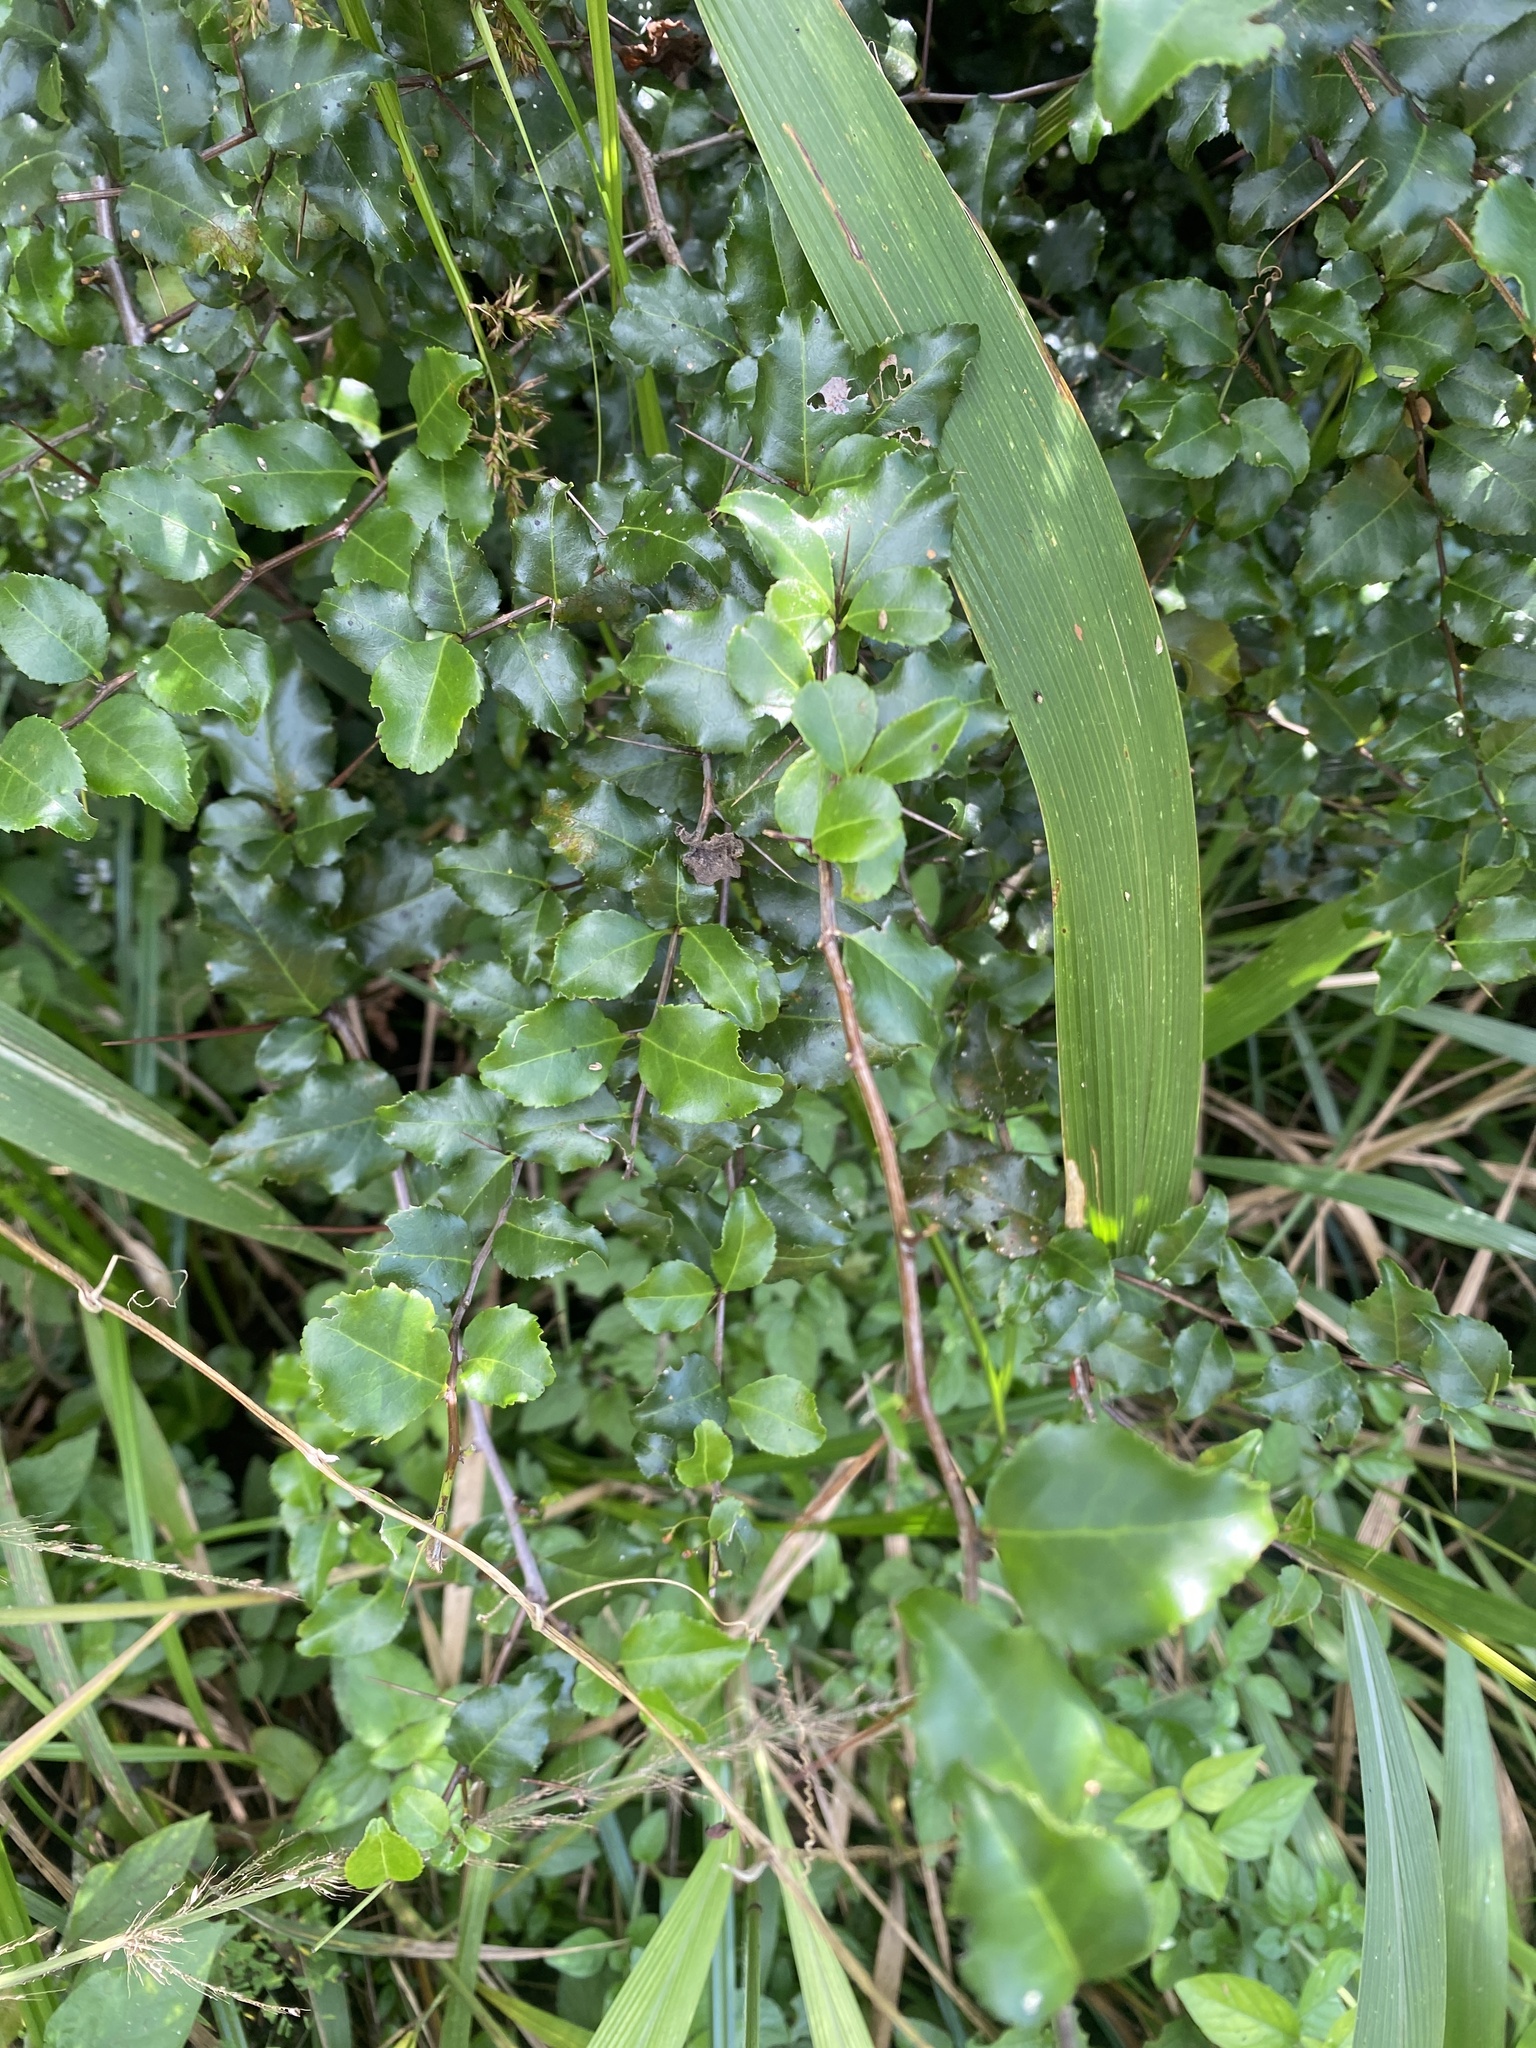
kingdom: Plantae
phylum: Tracheophyta
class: Magnoliopsida
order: Celastrales
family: Celastraceae
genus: Gymnosporia
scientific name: Gymnosporia harveyana
